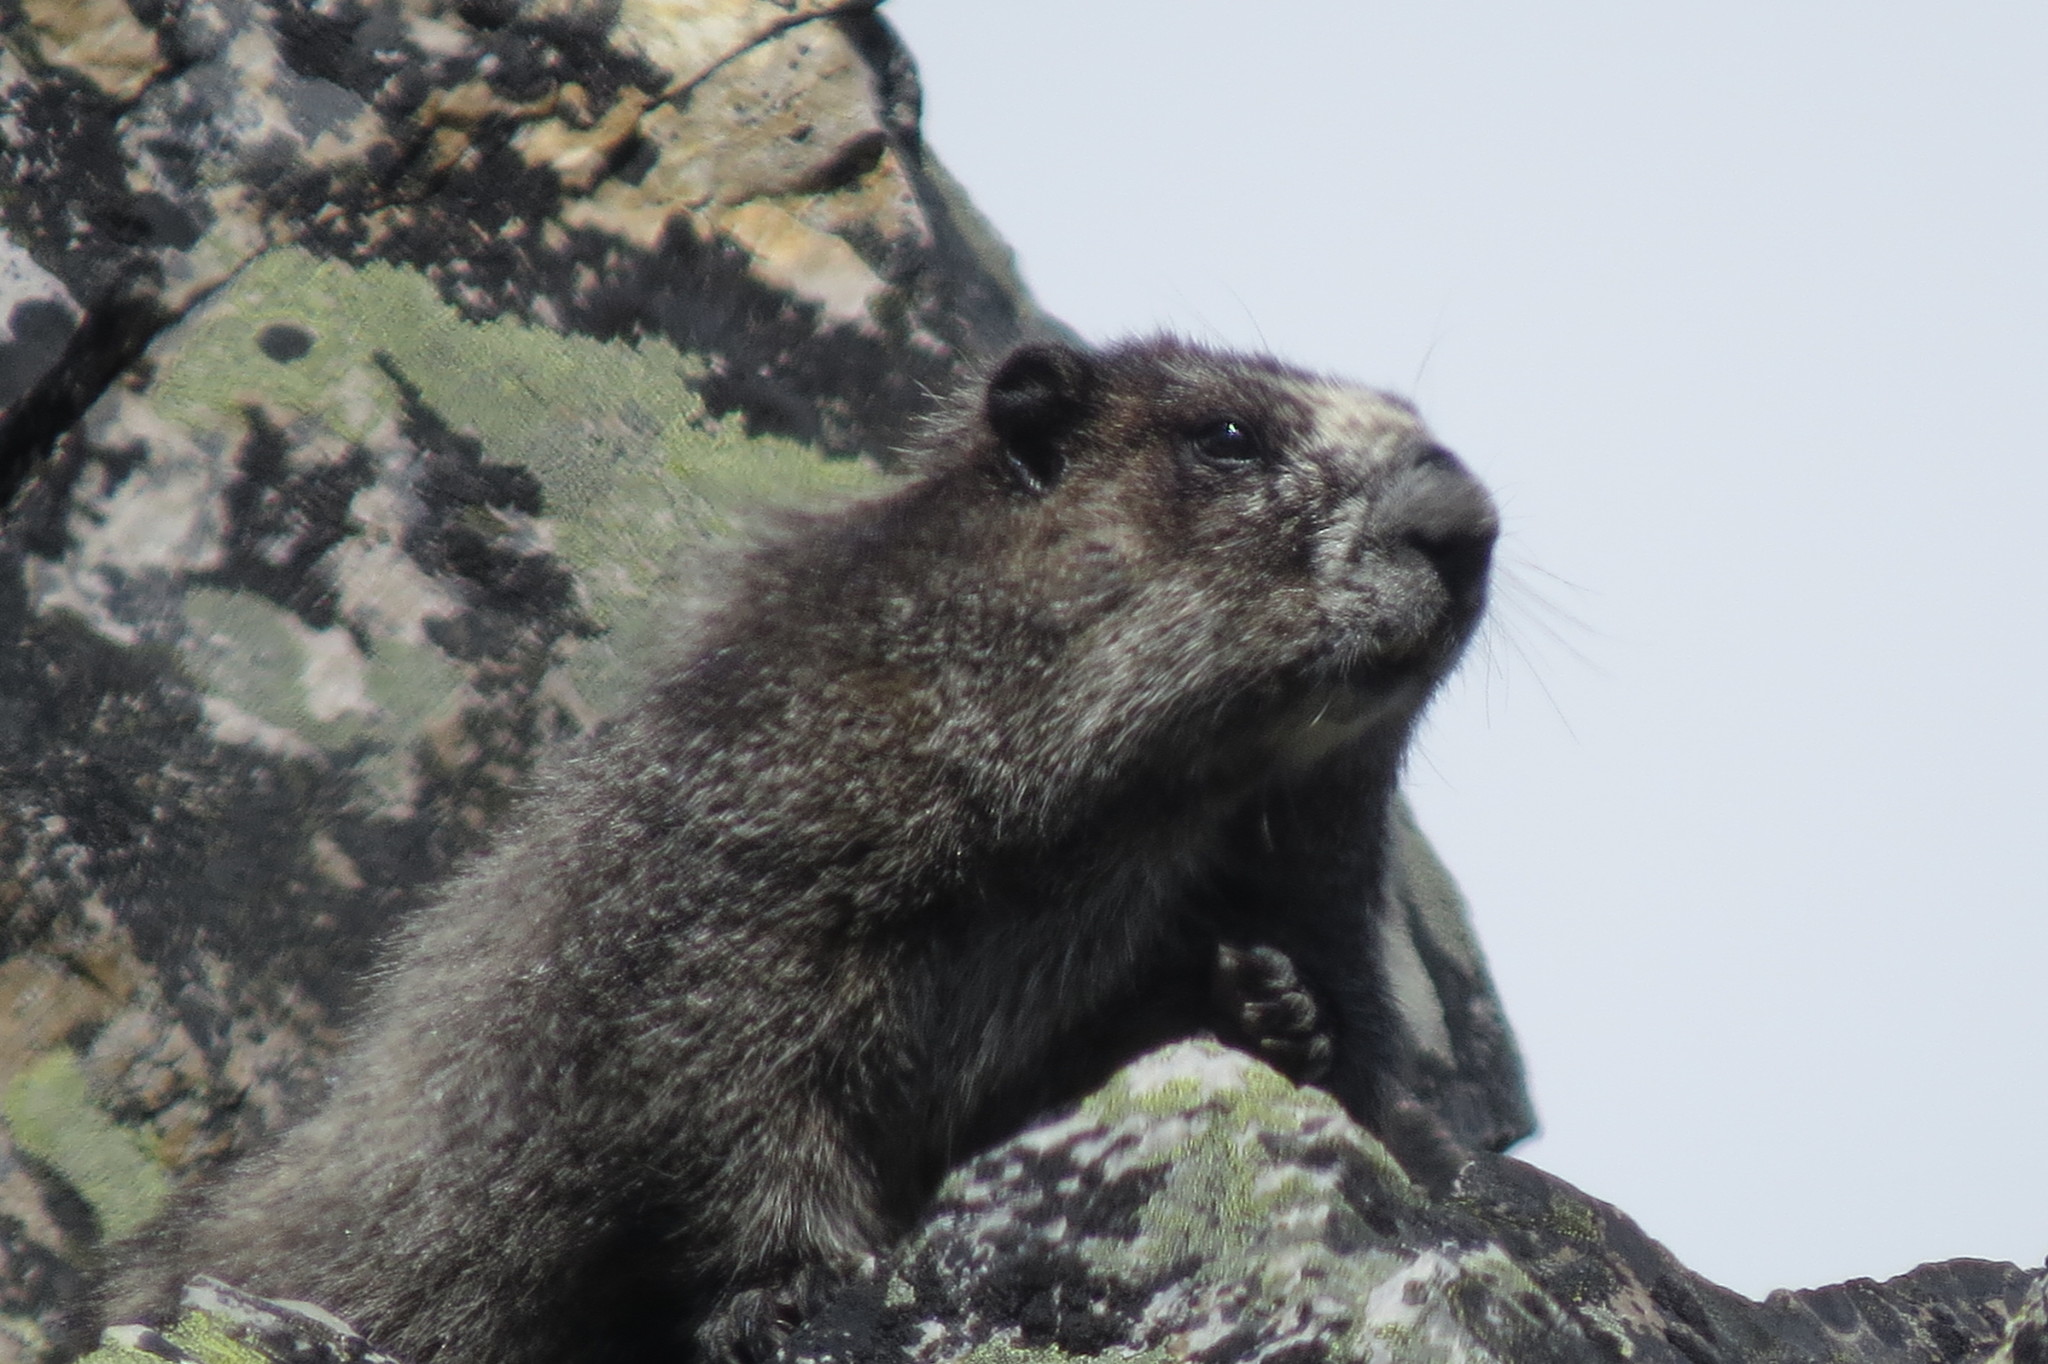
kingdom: Animalia
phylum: Chordata
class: Mammalia
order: Rodentia
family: Sciuridae
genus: Marmota
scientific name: Marmota caligata
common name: Hoary marmot
